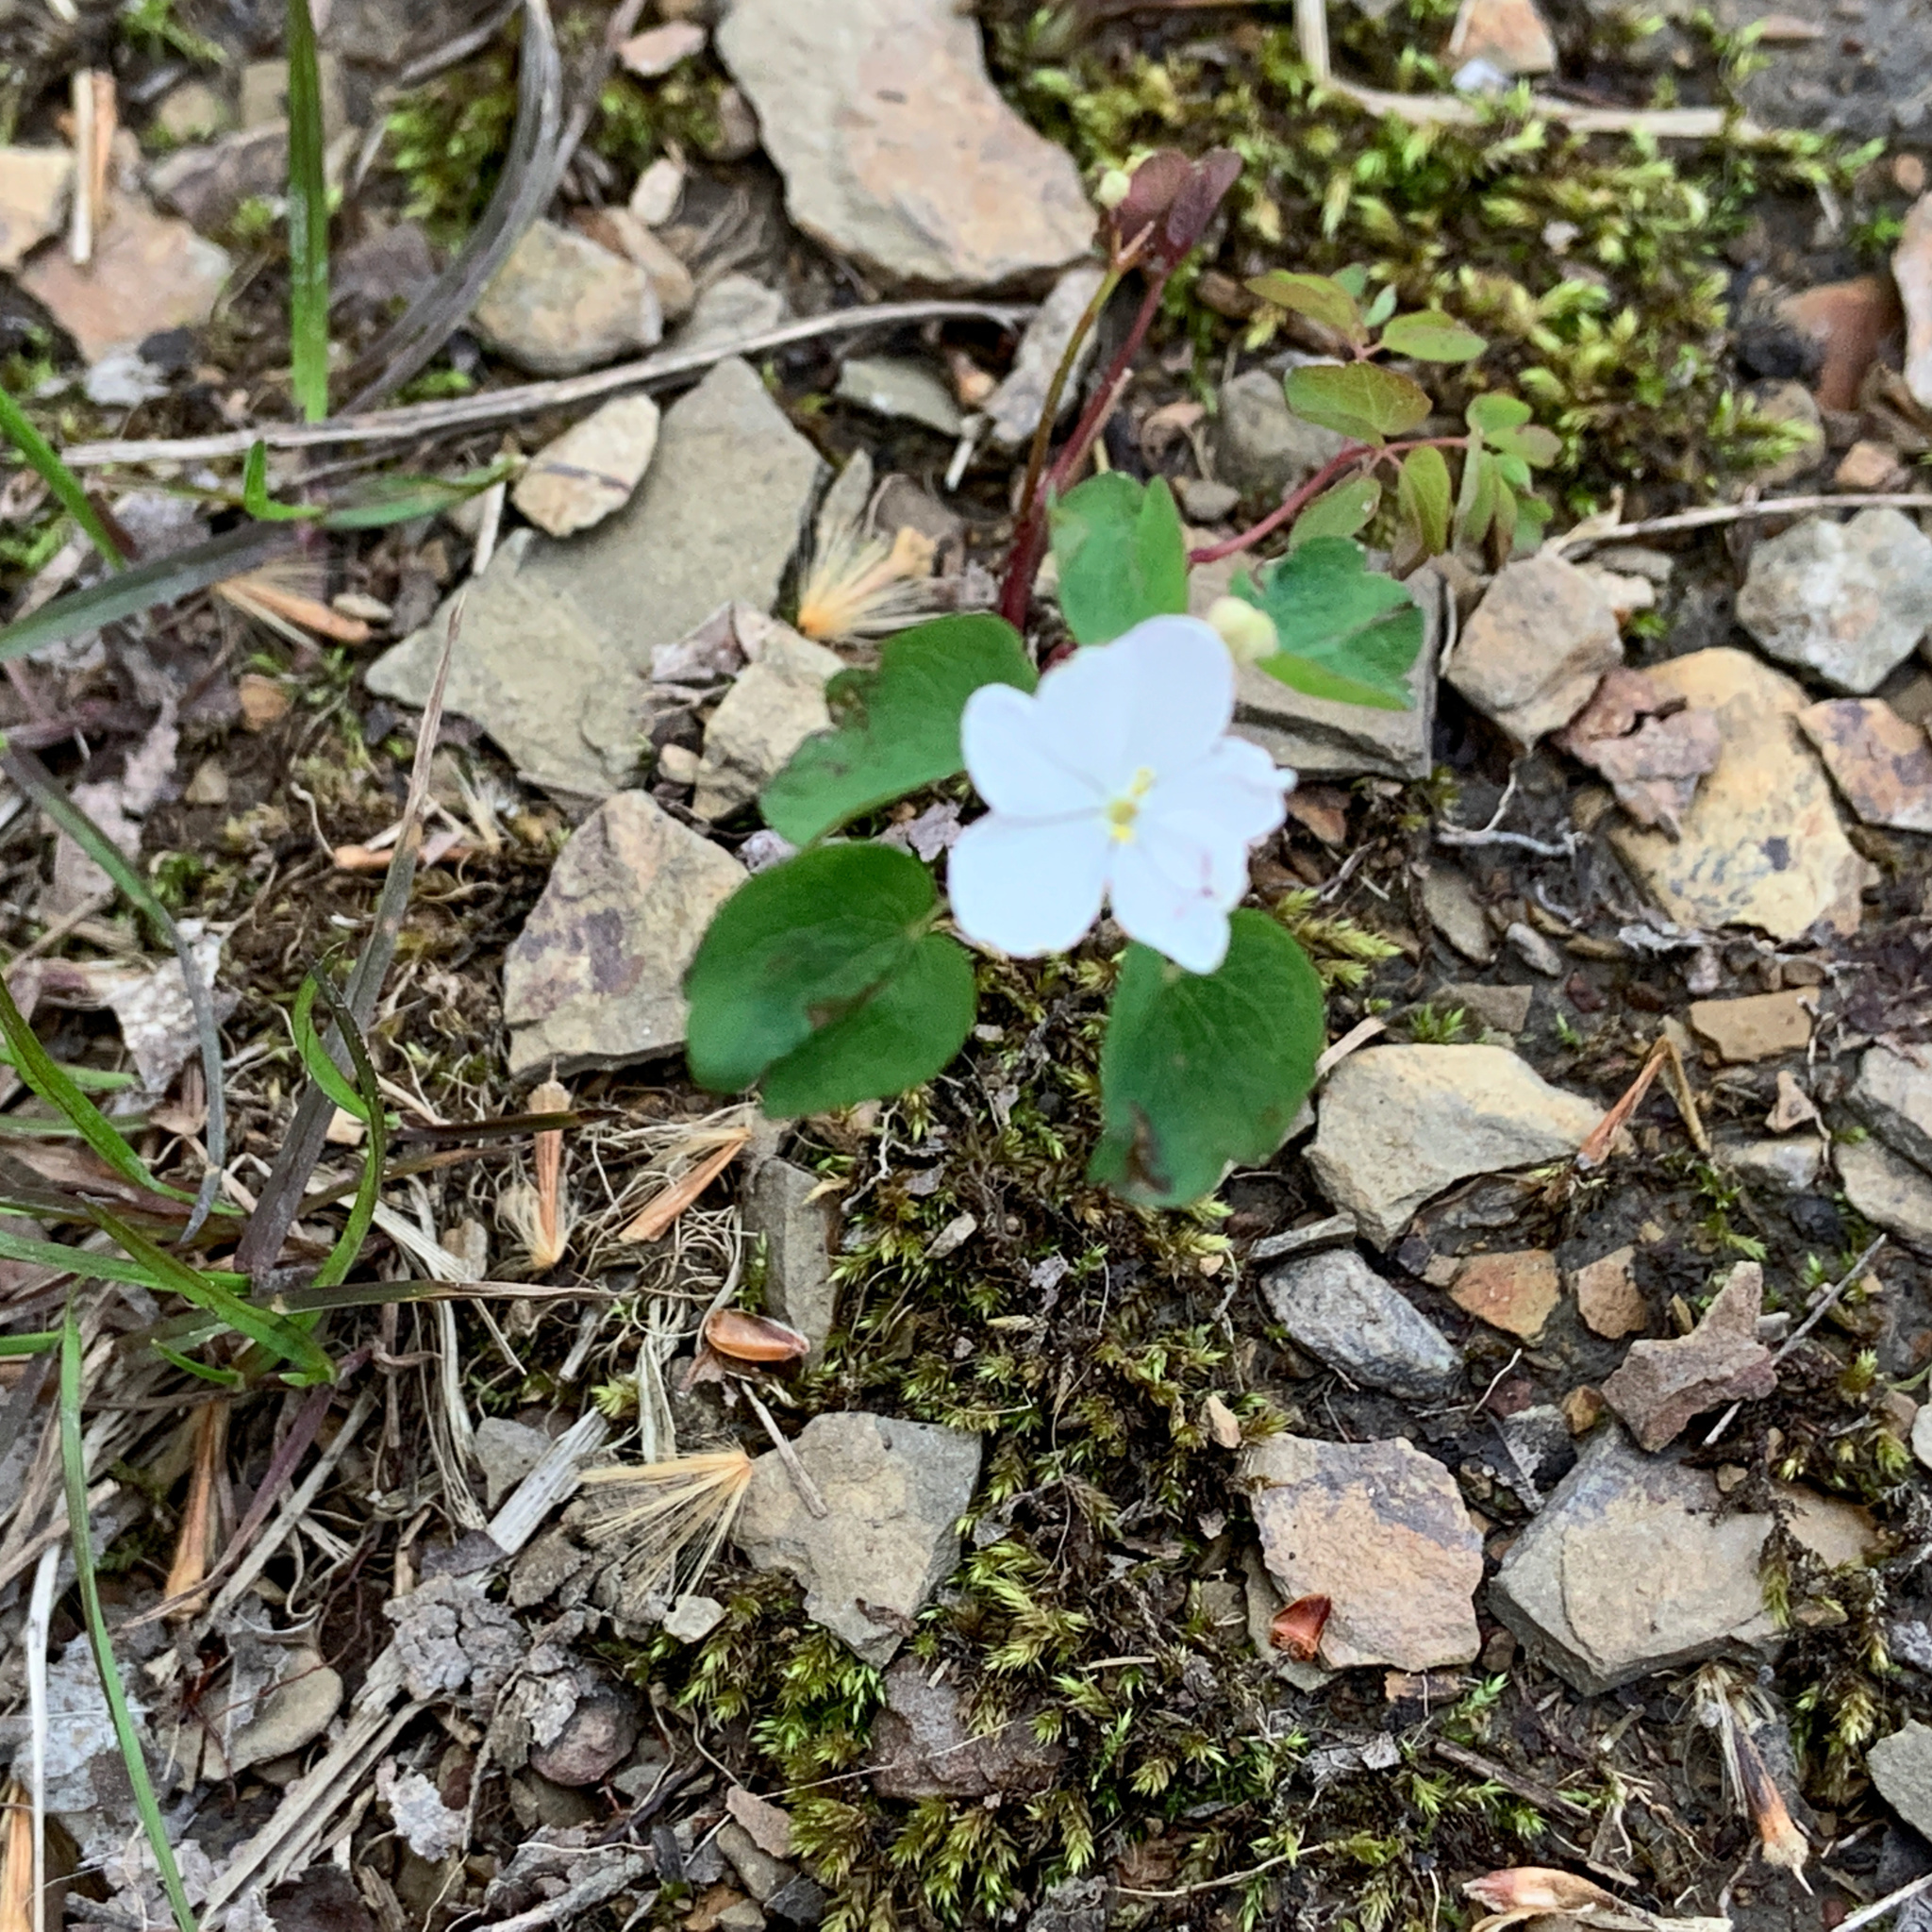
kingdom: Plantae
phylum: Tracheophyta
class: Magnoliopsida
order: Ranunculales
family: Ranunculaceae
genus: Thalictrum
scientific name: Thalictrum thalictroides
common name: Rue-anemone
